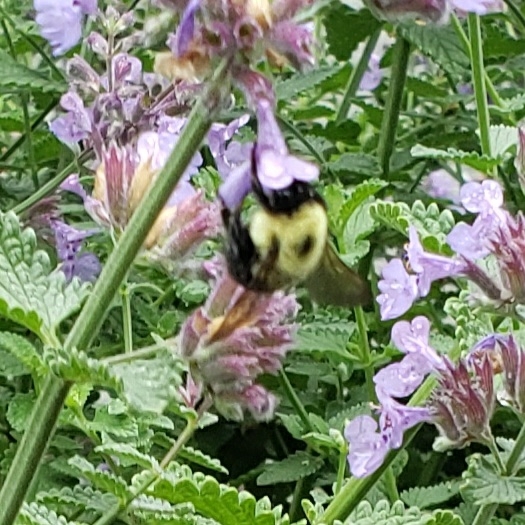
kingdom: Animalia
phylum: Arthropoda
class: Insecta
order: Hymenoptera
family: Apidae
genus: Bombus
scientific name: Bombus bimaculatus
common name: Two-spotted bumble bee
